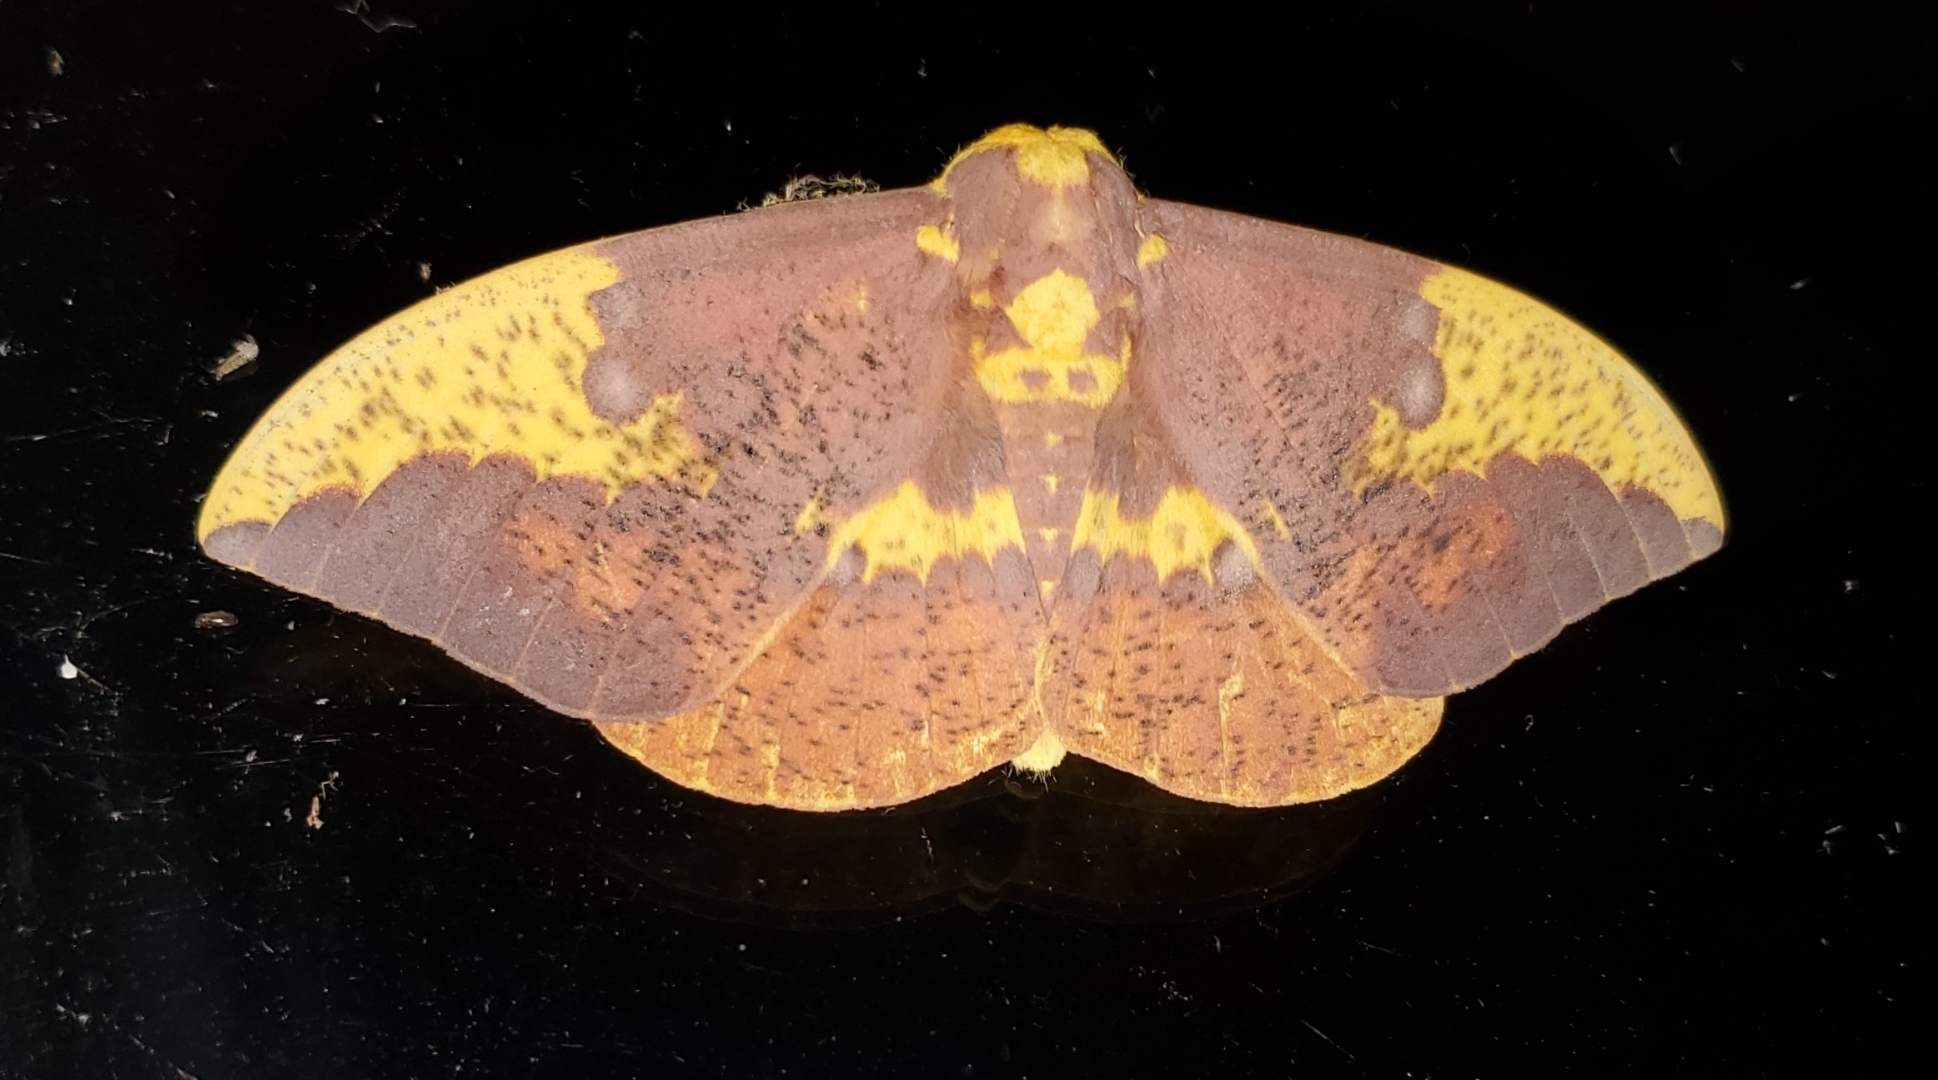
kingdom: Animalia
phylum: Arthropoda
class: Insecta
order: Lepidoptera
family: Saturniidae
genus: Eacles
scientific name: Eacles imperialis
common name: Imperial moth
